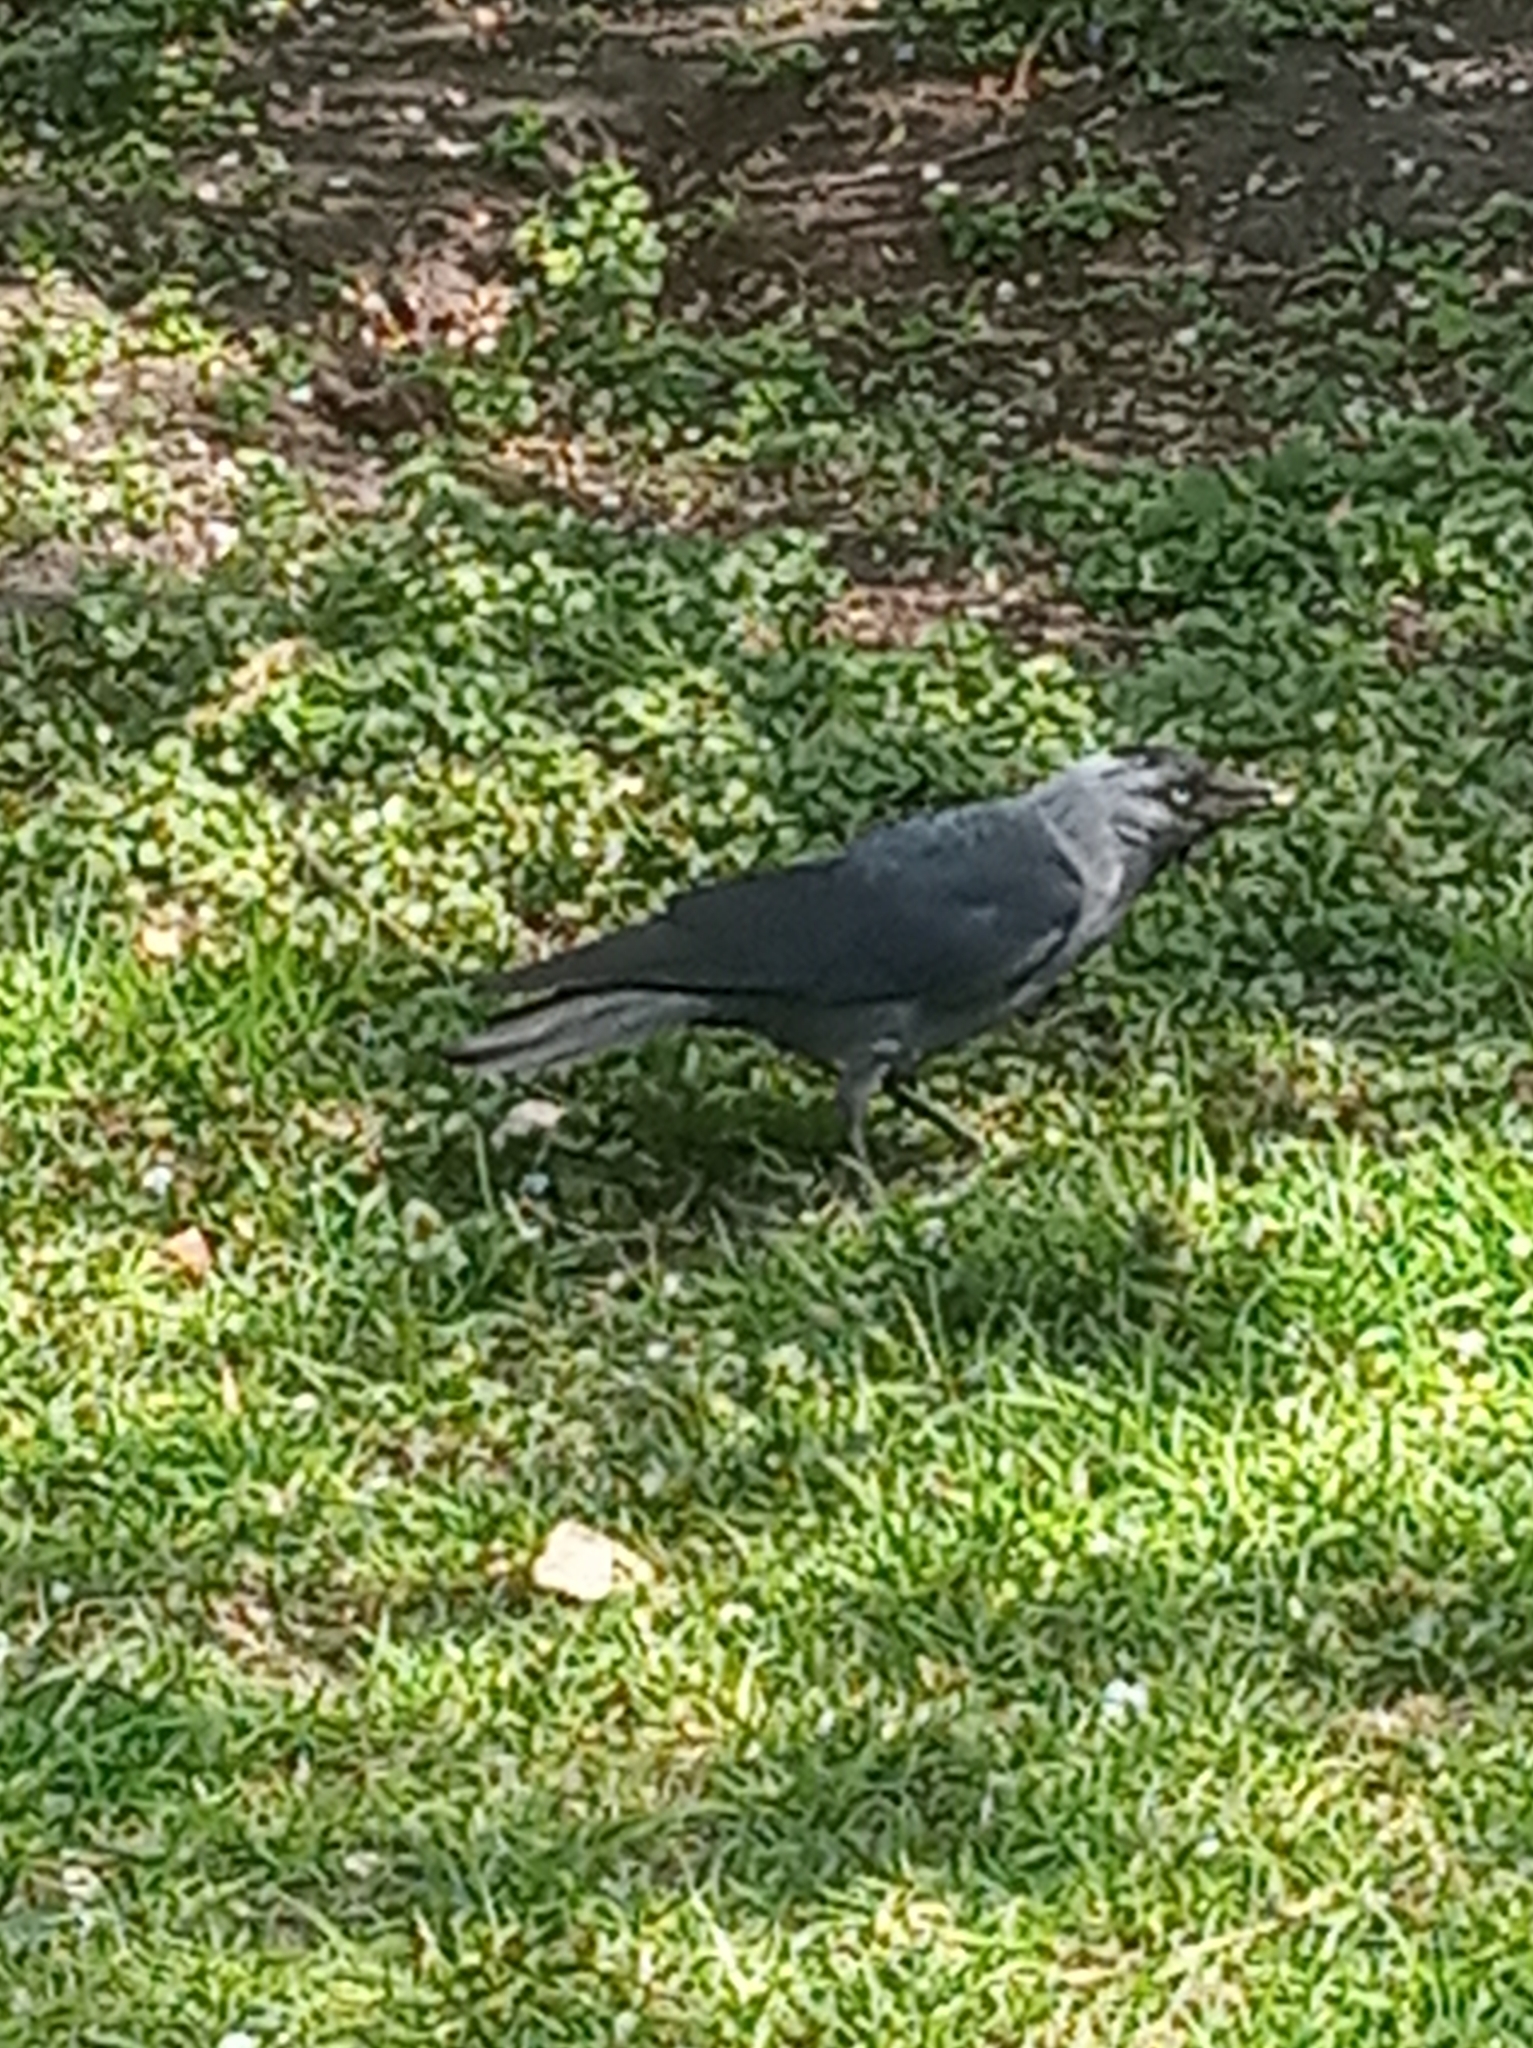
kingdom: Animalia
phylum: Chordata
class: Aves
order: Passeriformes
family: Corvidae
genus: Coloeus
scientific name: Coloeus monedula
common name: Western jackdaw
